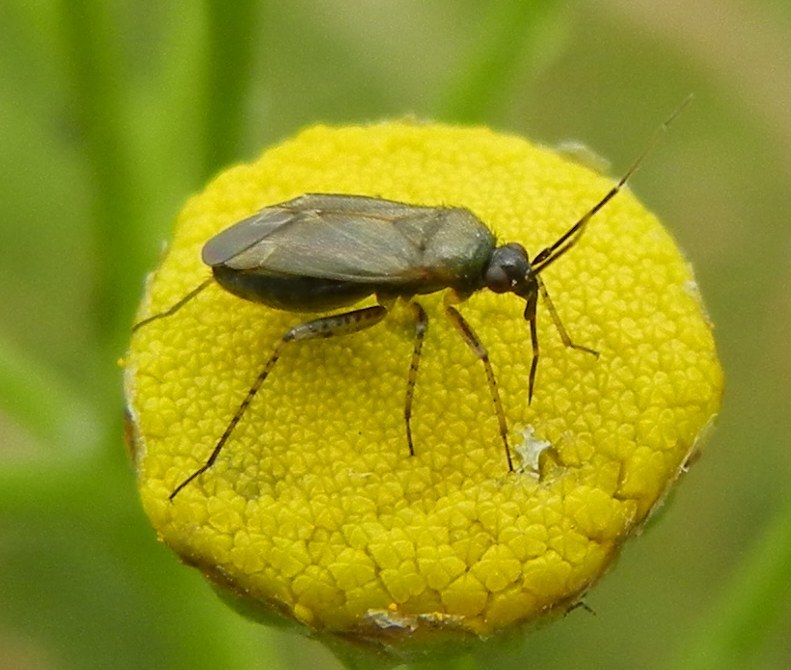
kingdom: Animalia
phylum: Arthropoda
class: Insecta
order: Hemiptera
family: Miridae
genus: Plagiognathus
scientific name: Plagiognathus arbustorum
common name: Plant bug
